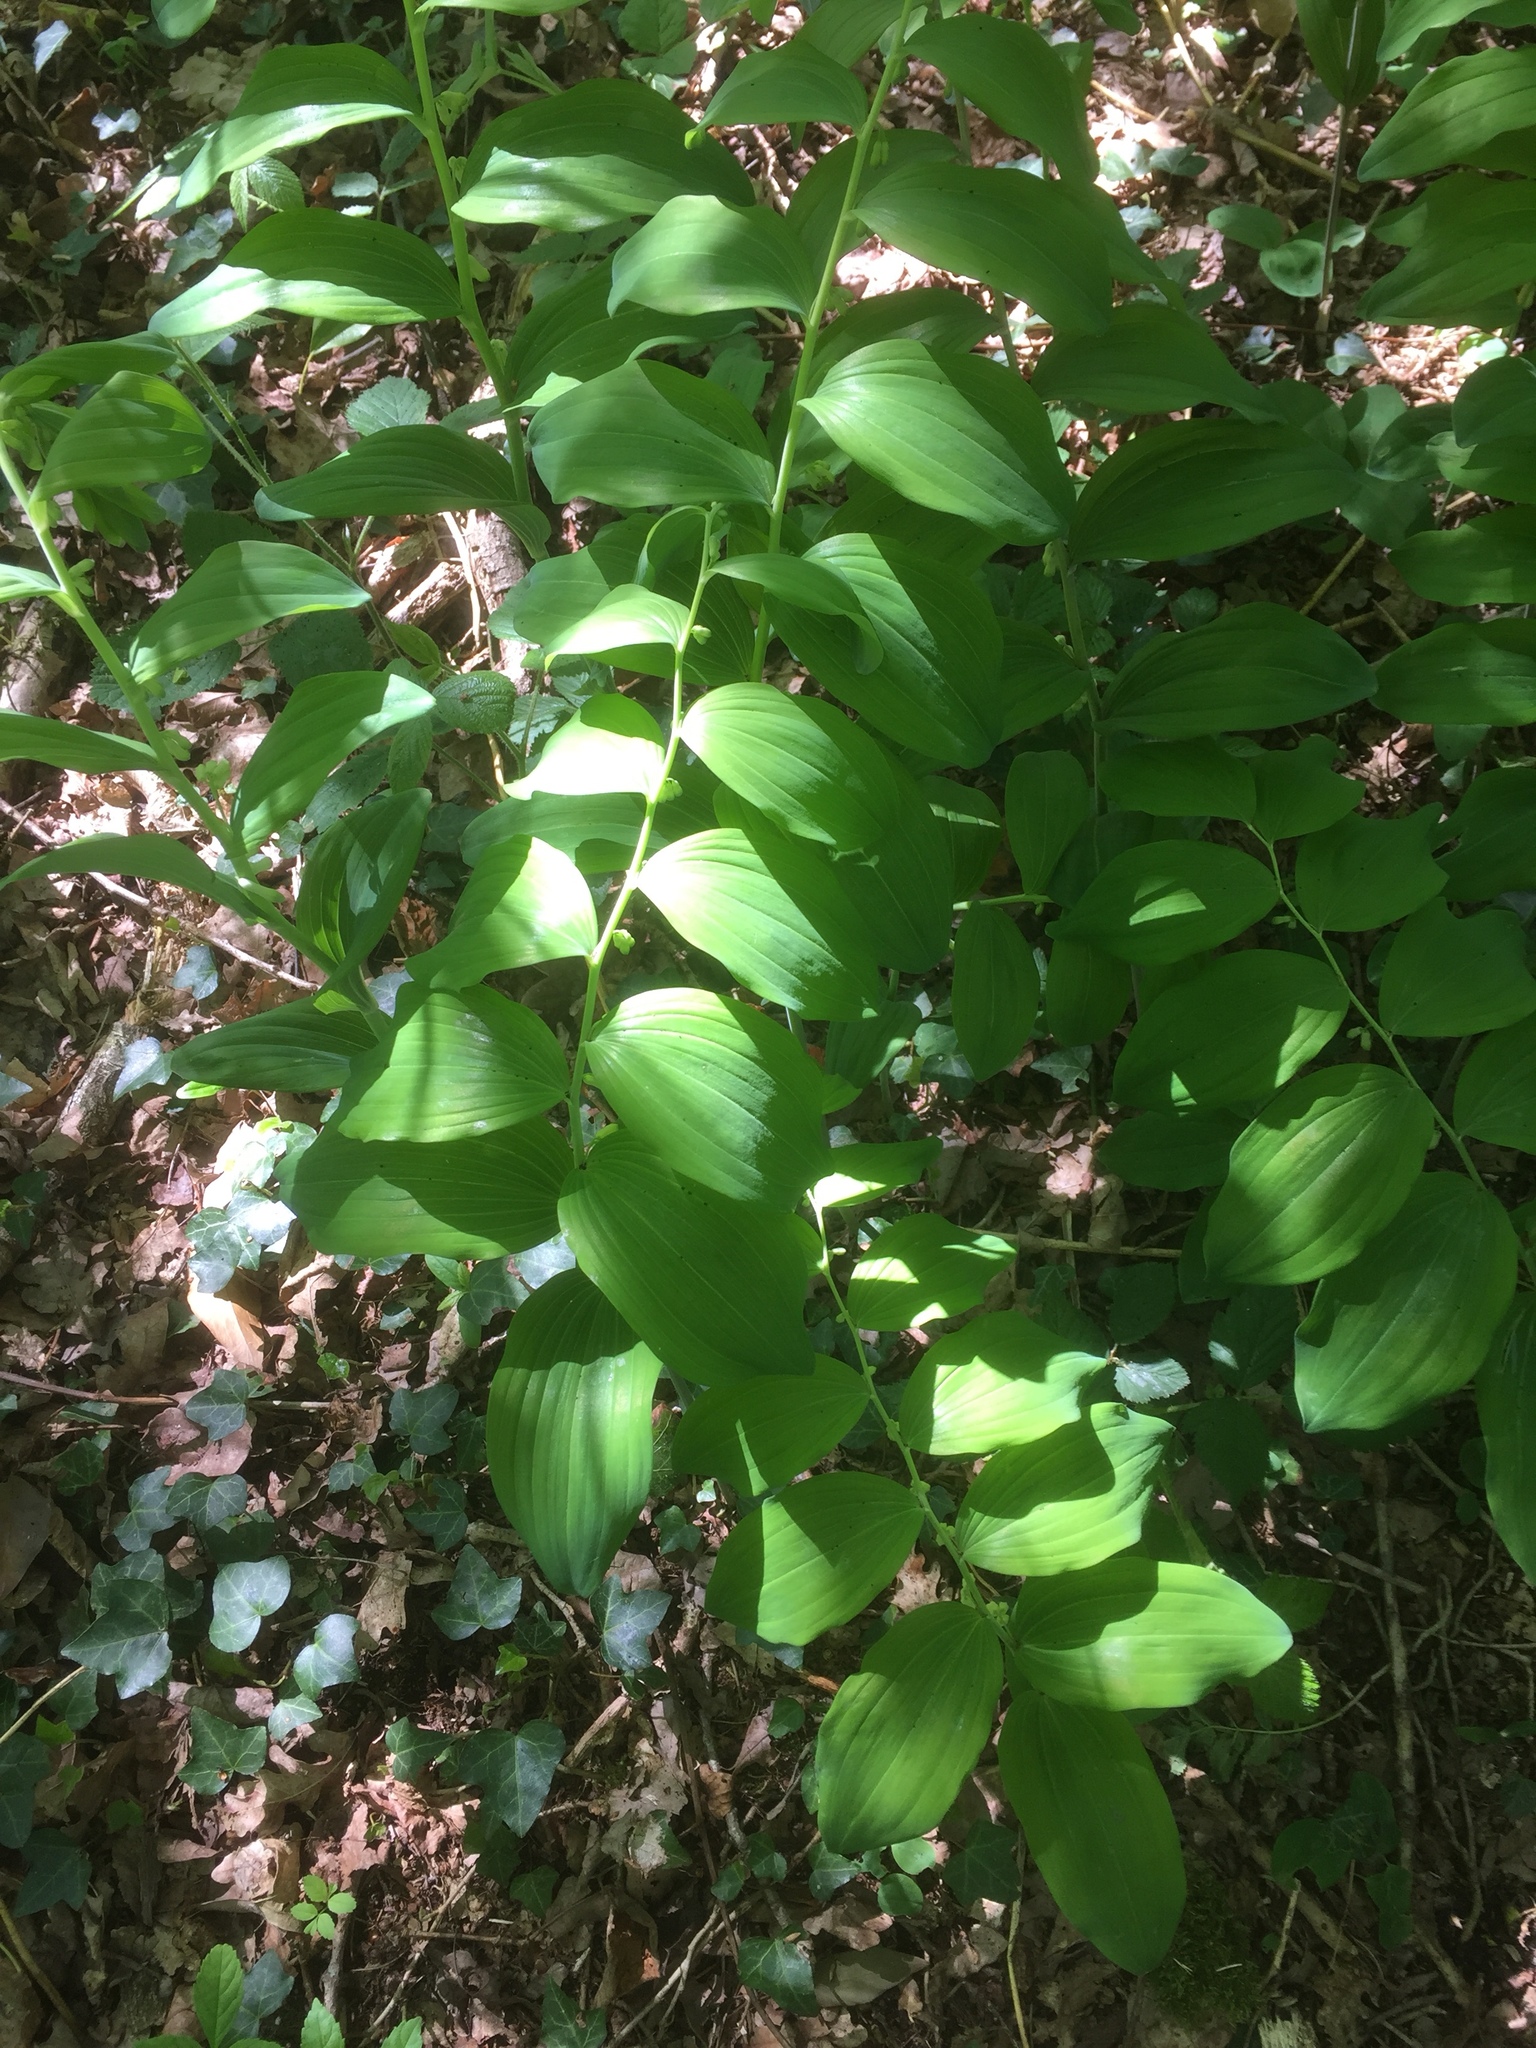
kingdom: Plantae
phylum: Tracheophyta
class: Liliopsida
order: Asparagales
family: Asparagaceae
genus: Polygonatum
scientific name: Polygonatum multiflorum
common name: Solomon's-seal
